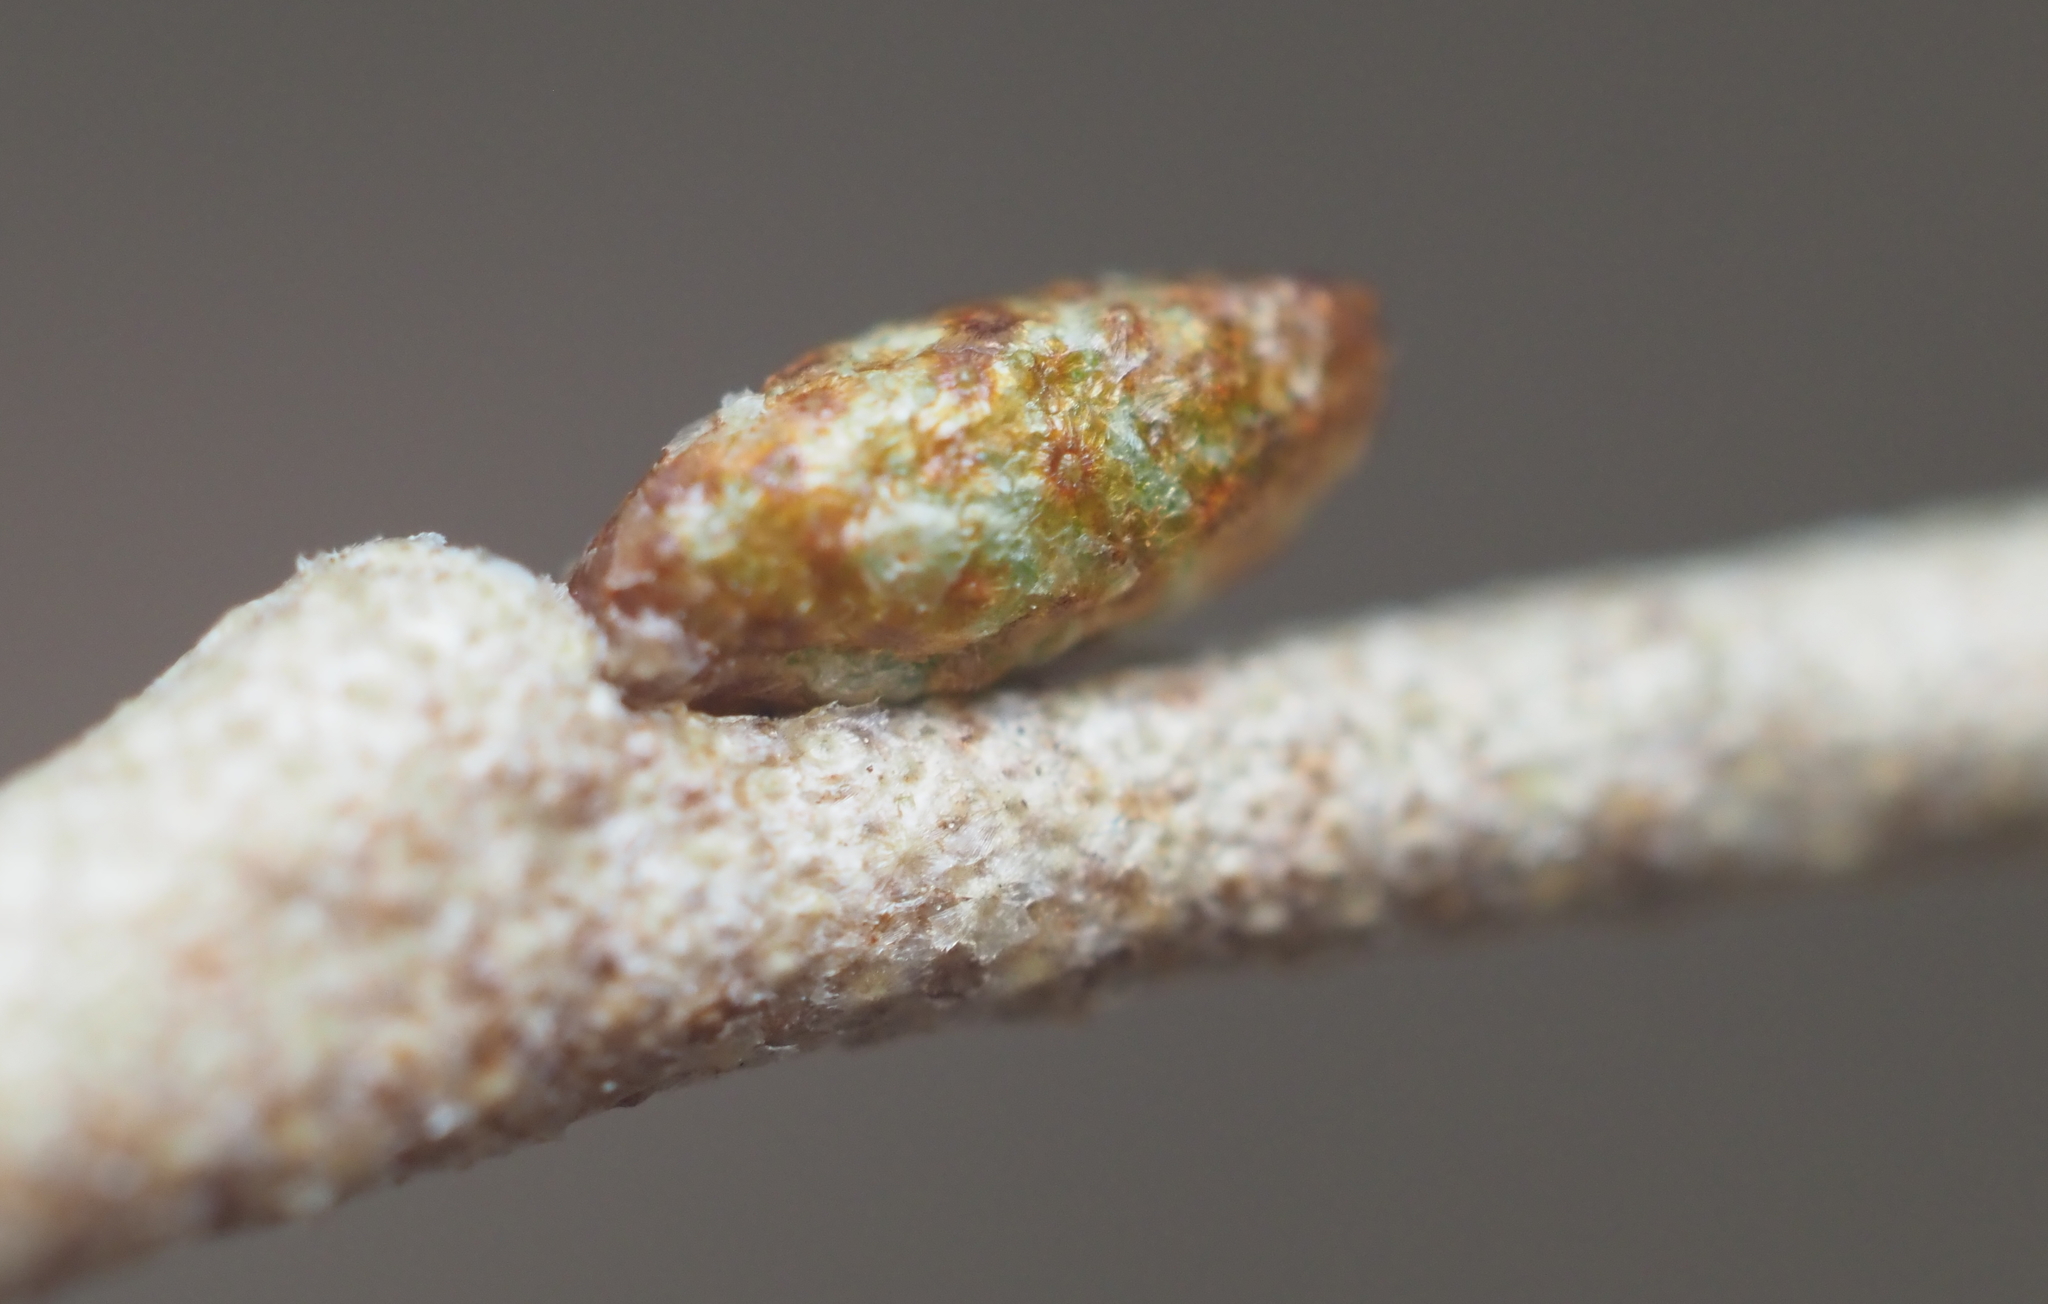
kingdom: Plantae
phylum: Tracheophyta
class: Magnoliopsida
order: Rosales
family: Elaeagnaceae
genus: Elaeagnus
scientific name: Elaeagnus umbellata
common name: Autumn olive
